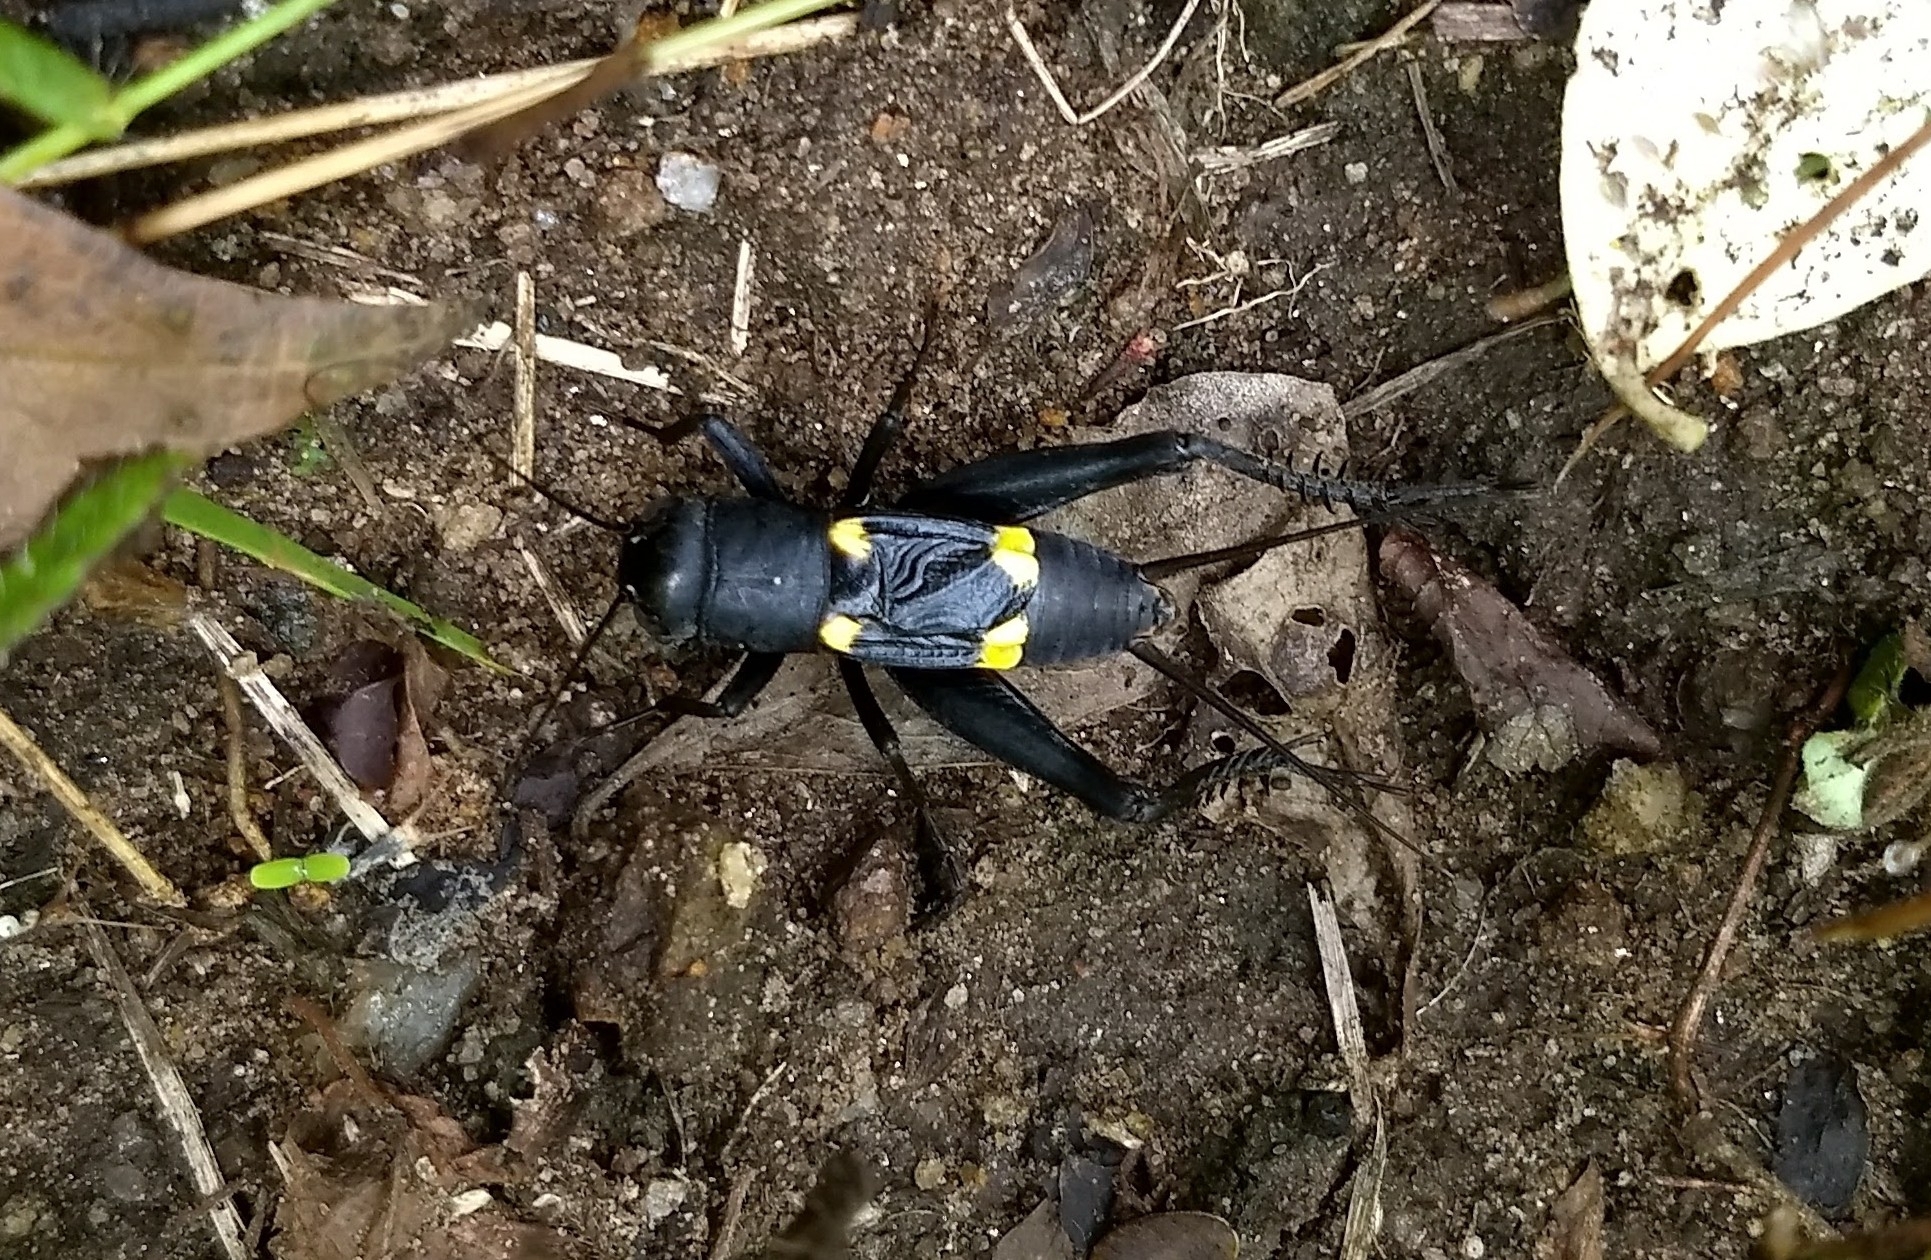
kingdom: Animalia
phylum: Arthropoda
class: Insecta
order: Orthoptera
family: Gryllidae
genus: Gryllus
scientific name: Gryllus quadrimaculatus
